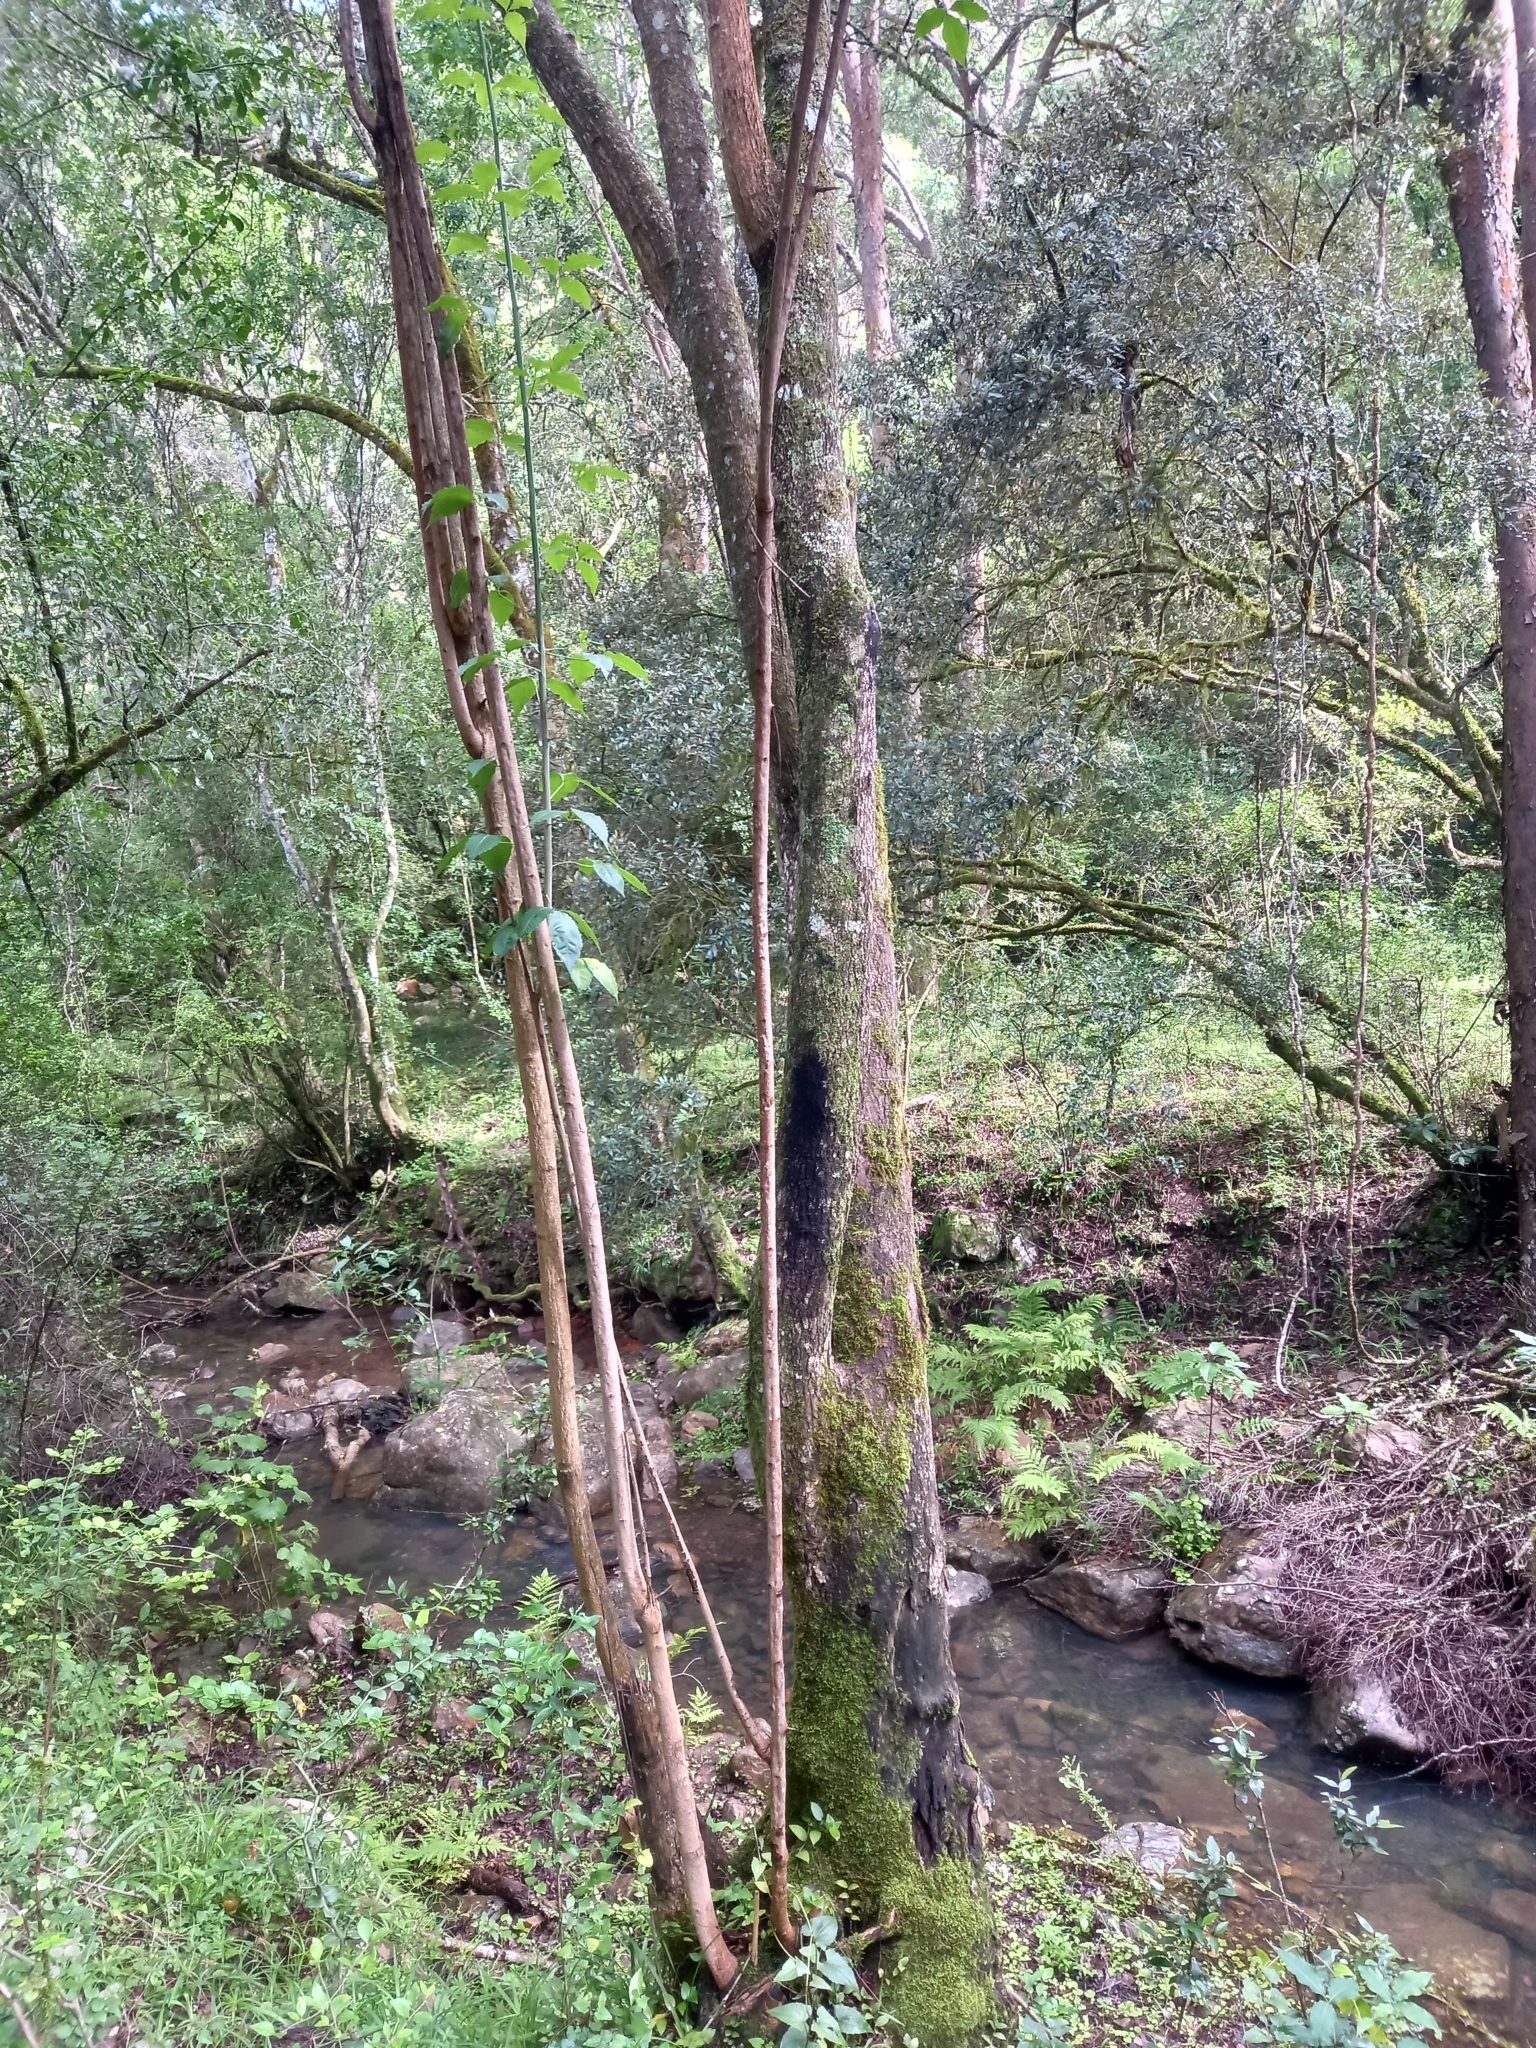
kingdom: Plantae
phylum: Tracheophyta
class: Magnoliopsida
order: Sapindales
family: Anacardiaceae
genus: Searsia
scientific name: Searsia chirindensis
